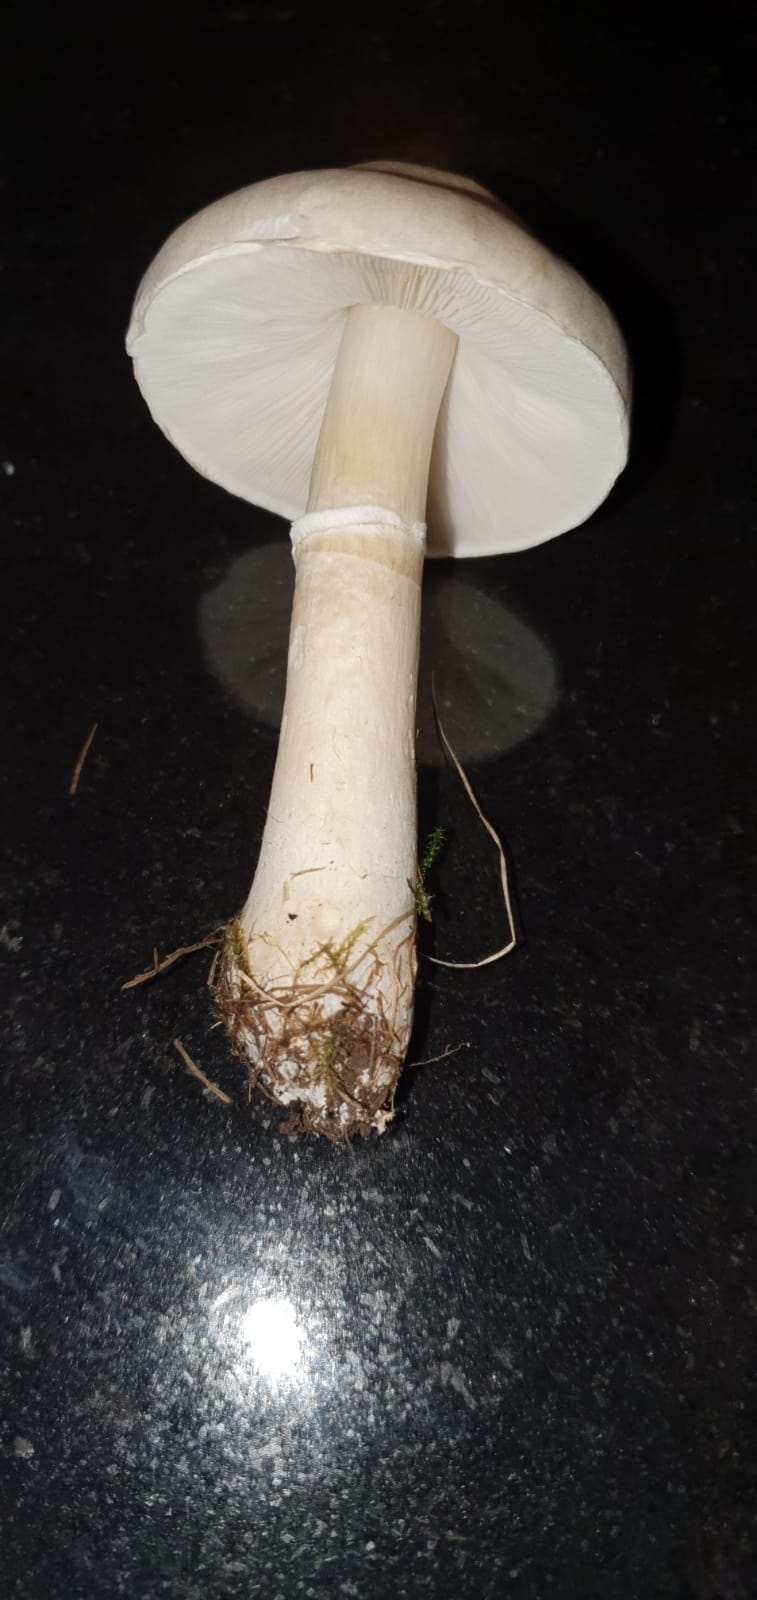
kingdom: Fungi
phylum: Basidiomycota
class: Agaricomycetes
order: Agaricales
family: Agaricaceae
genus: Leucoagaricus
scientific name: Leucoagaricus leucothites
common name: White dapperling
